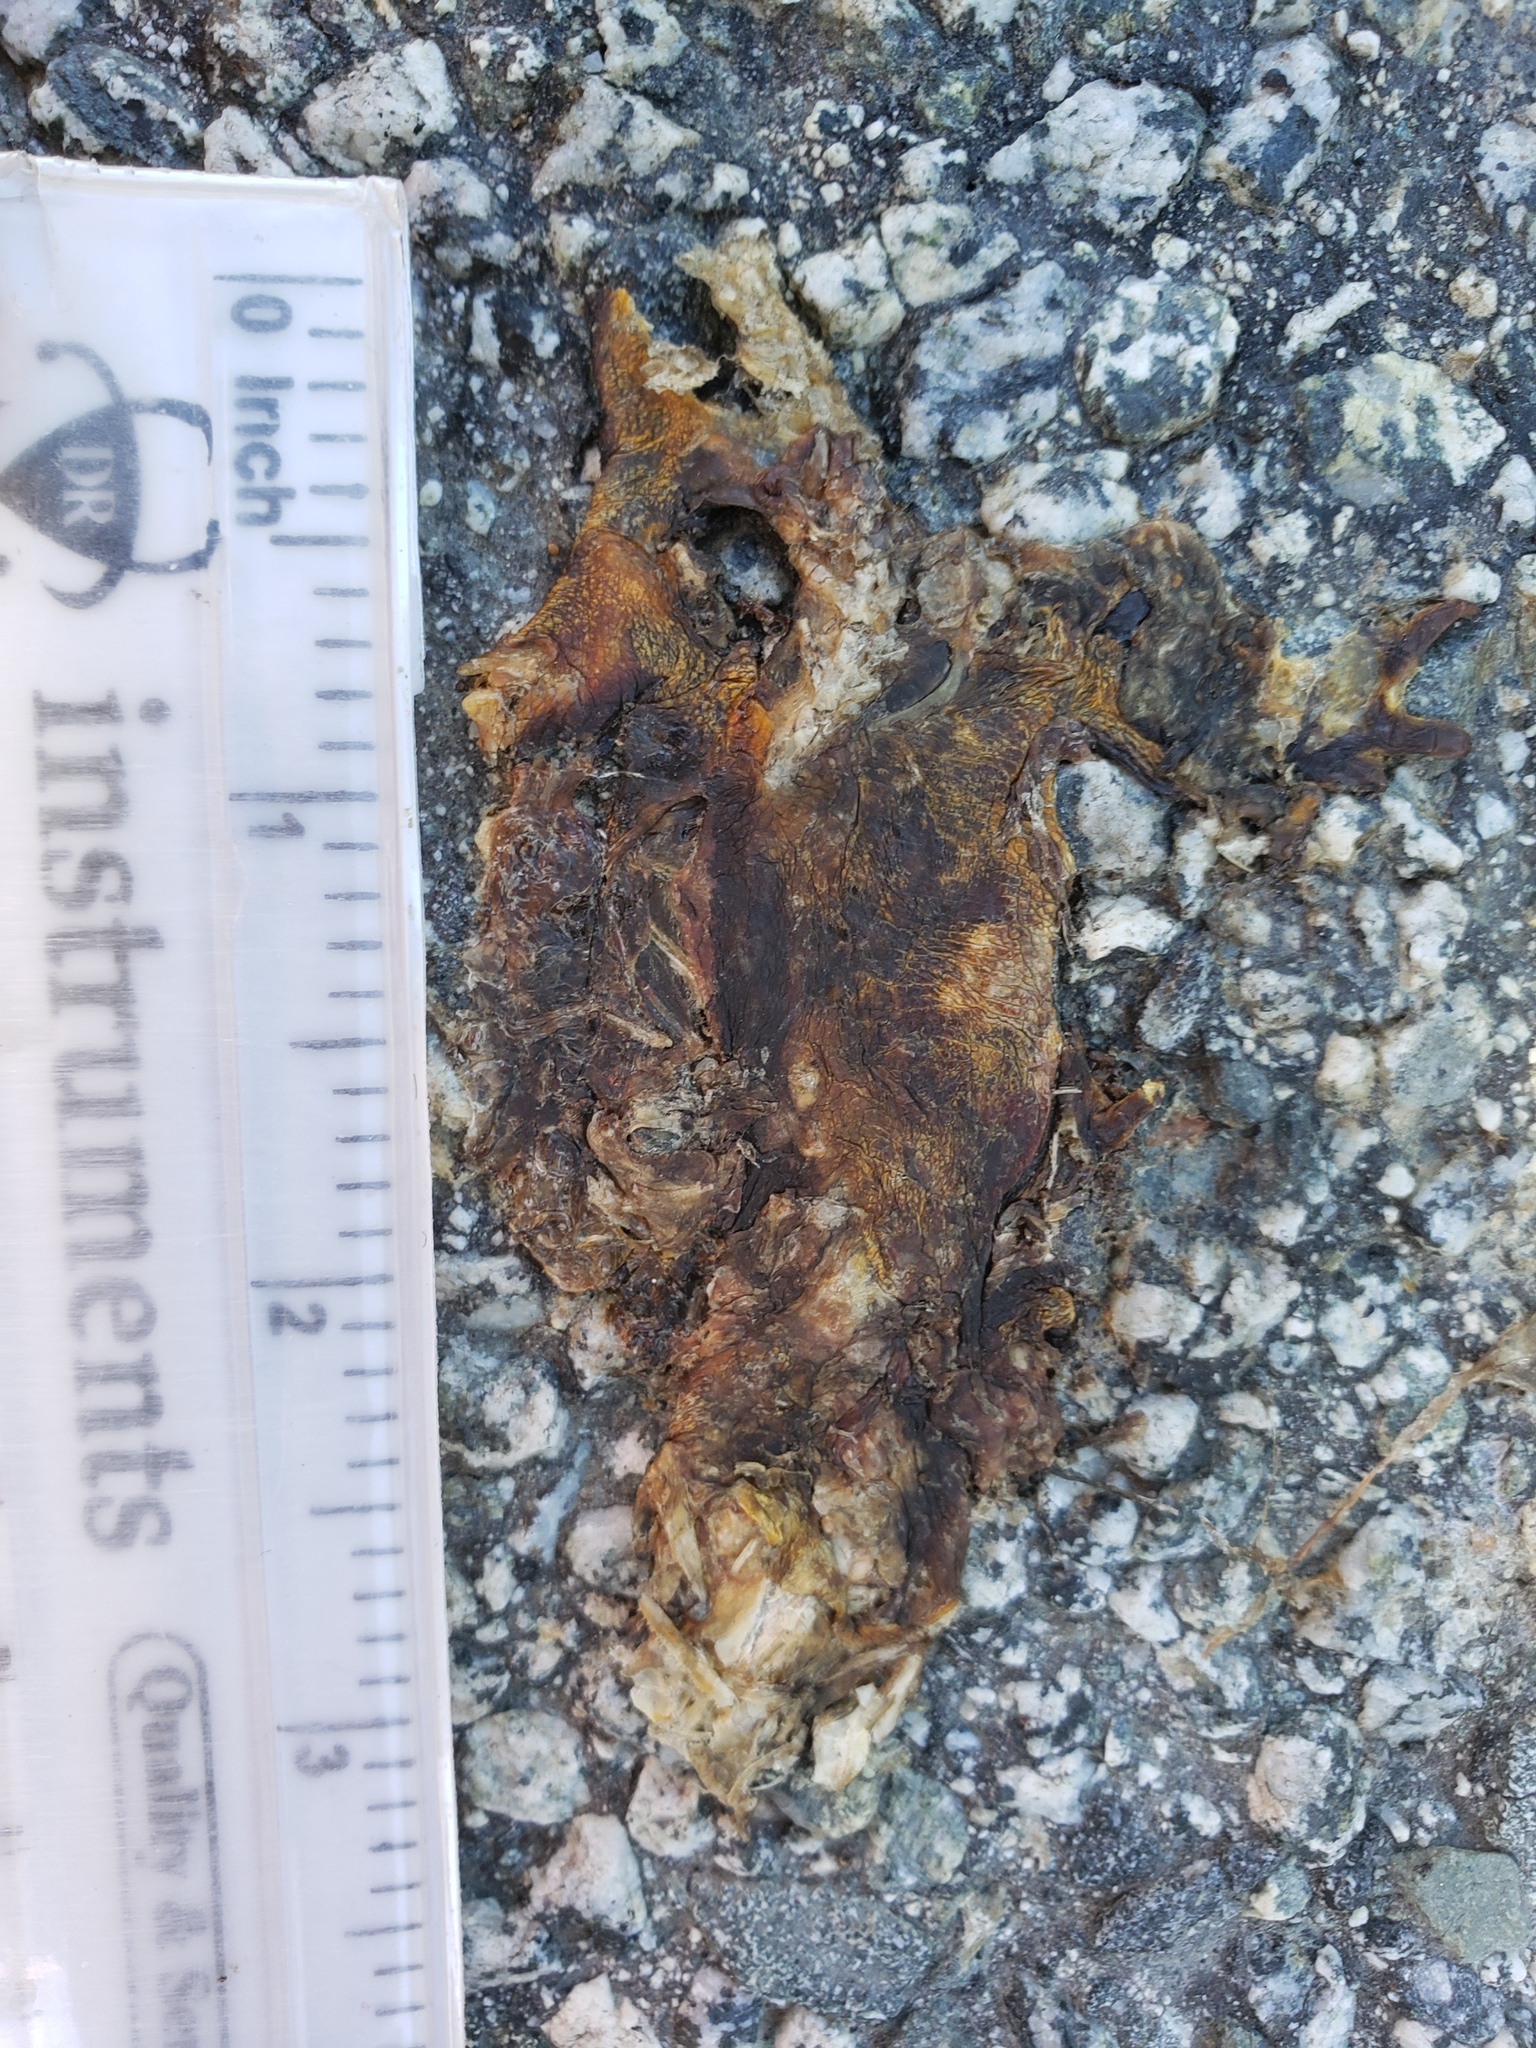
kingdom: Animalia
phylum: Chordata
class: Amphibia
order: Caudata
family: Salamandridae
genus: Taricha
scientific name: Taricha
